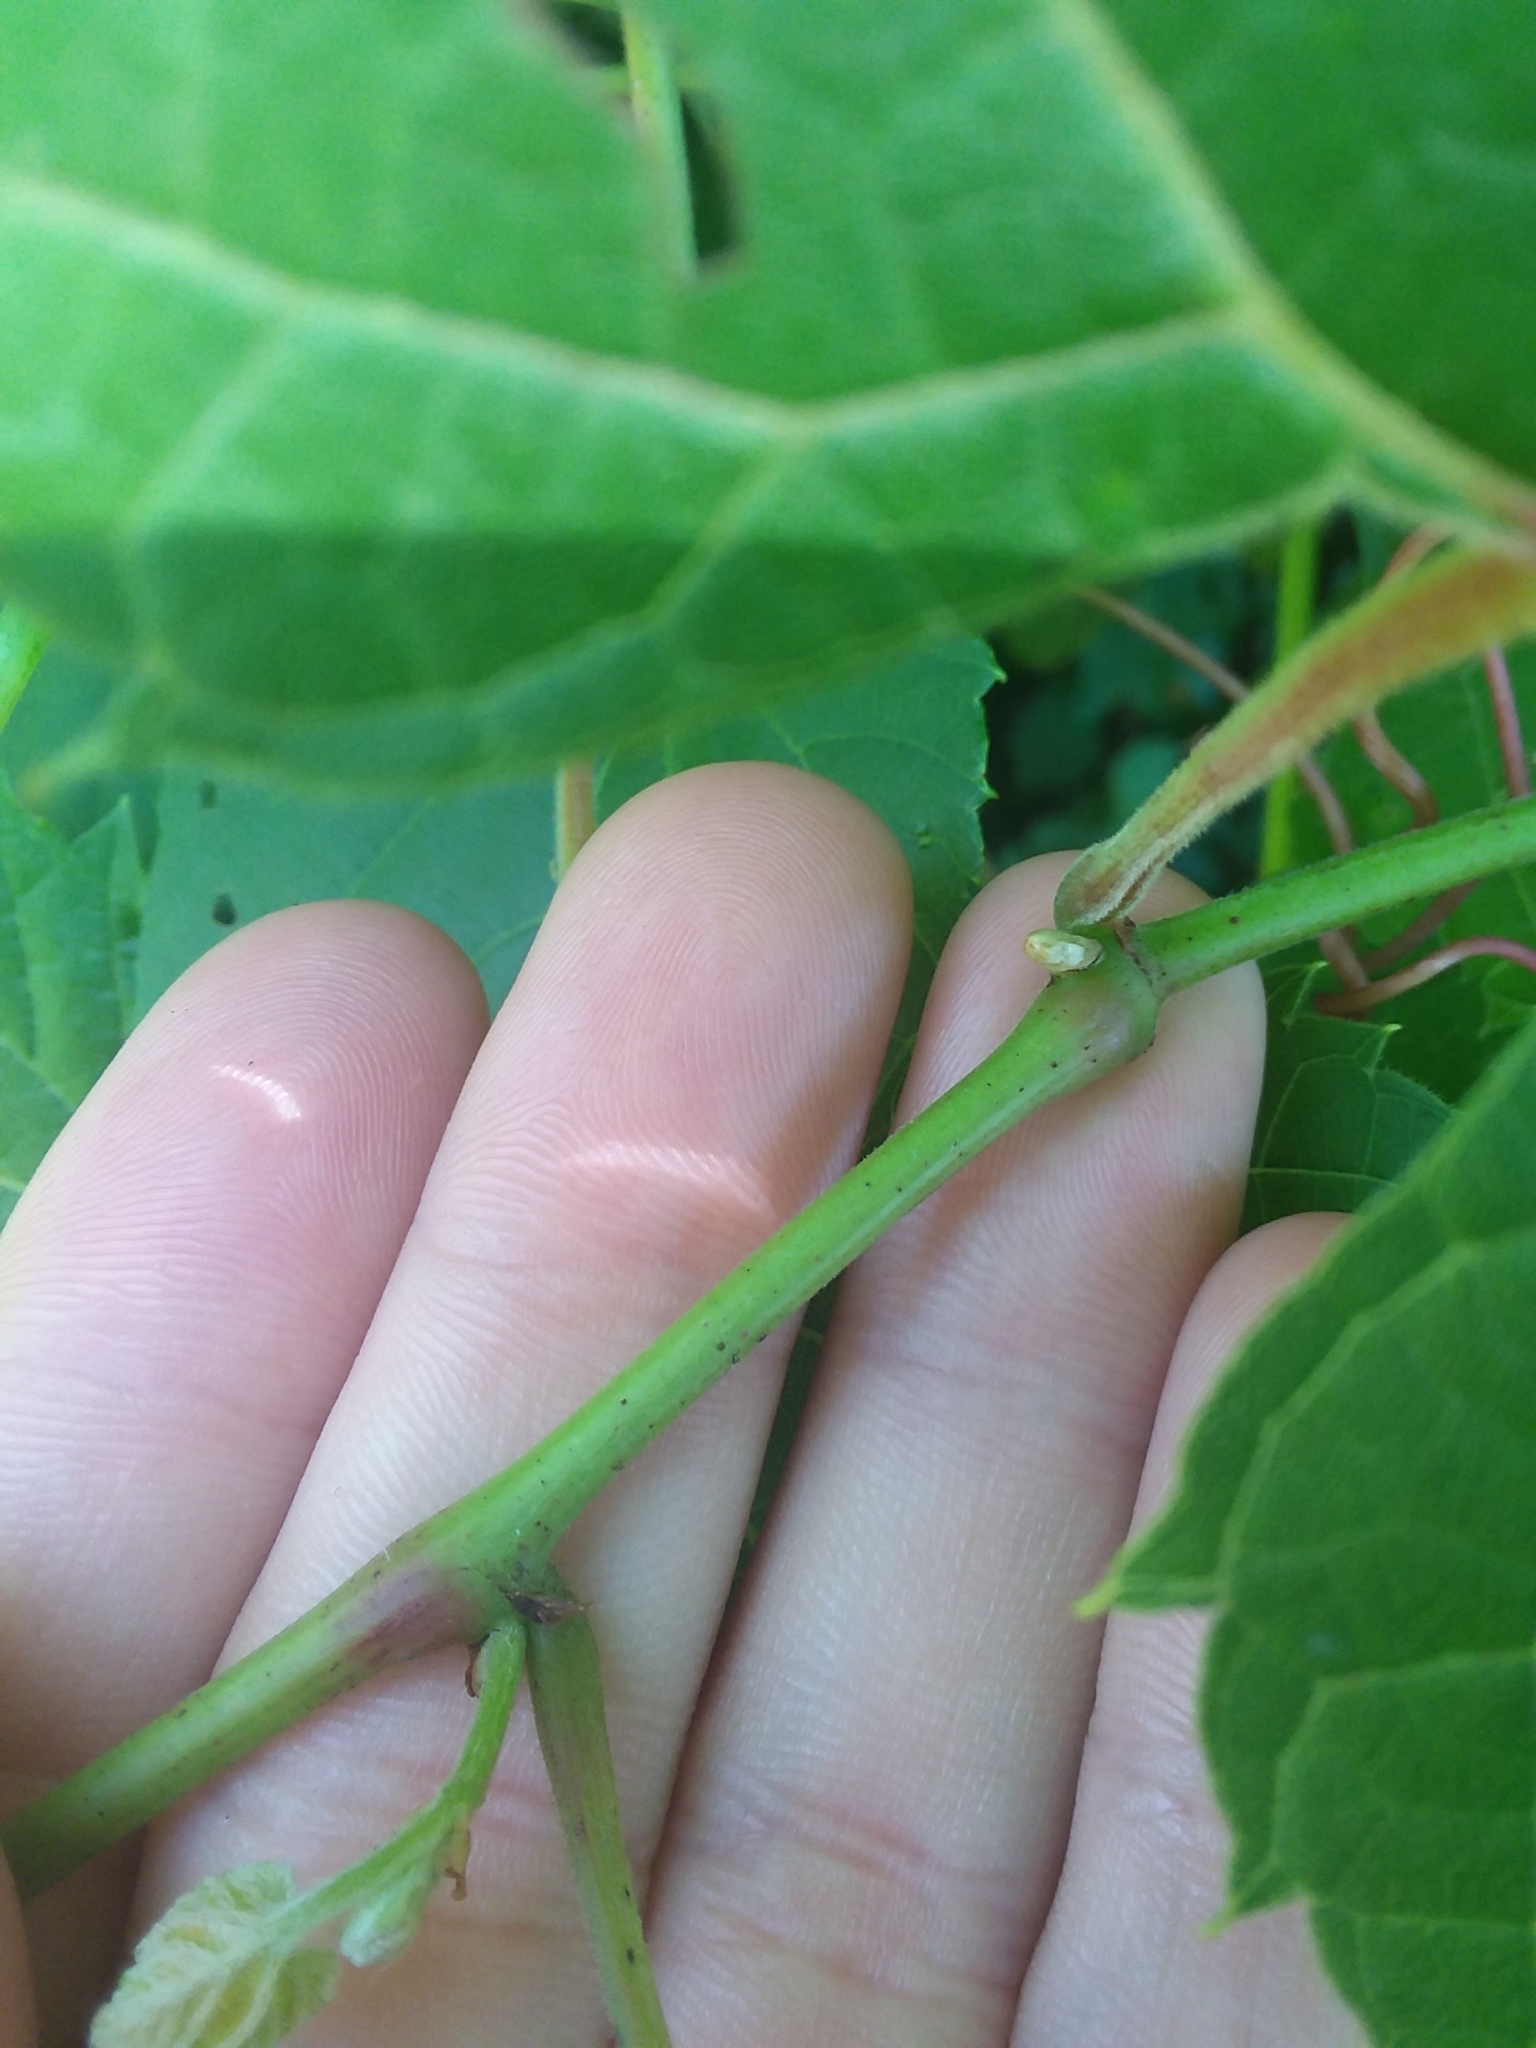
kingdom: Plantae
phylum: Tracheophyta
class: Magnoliopsida
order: Vitales
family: Vitaceae
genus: Vitis
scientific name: Vitis riparia
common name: Frost grape
